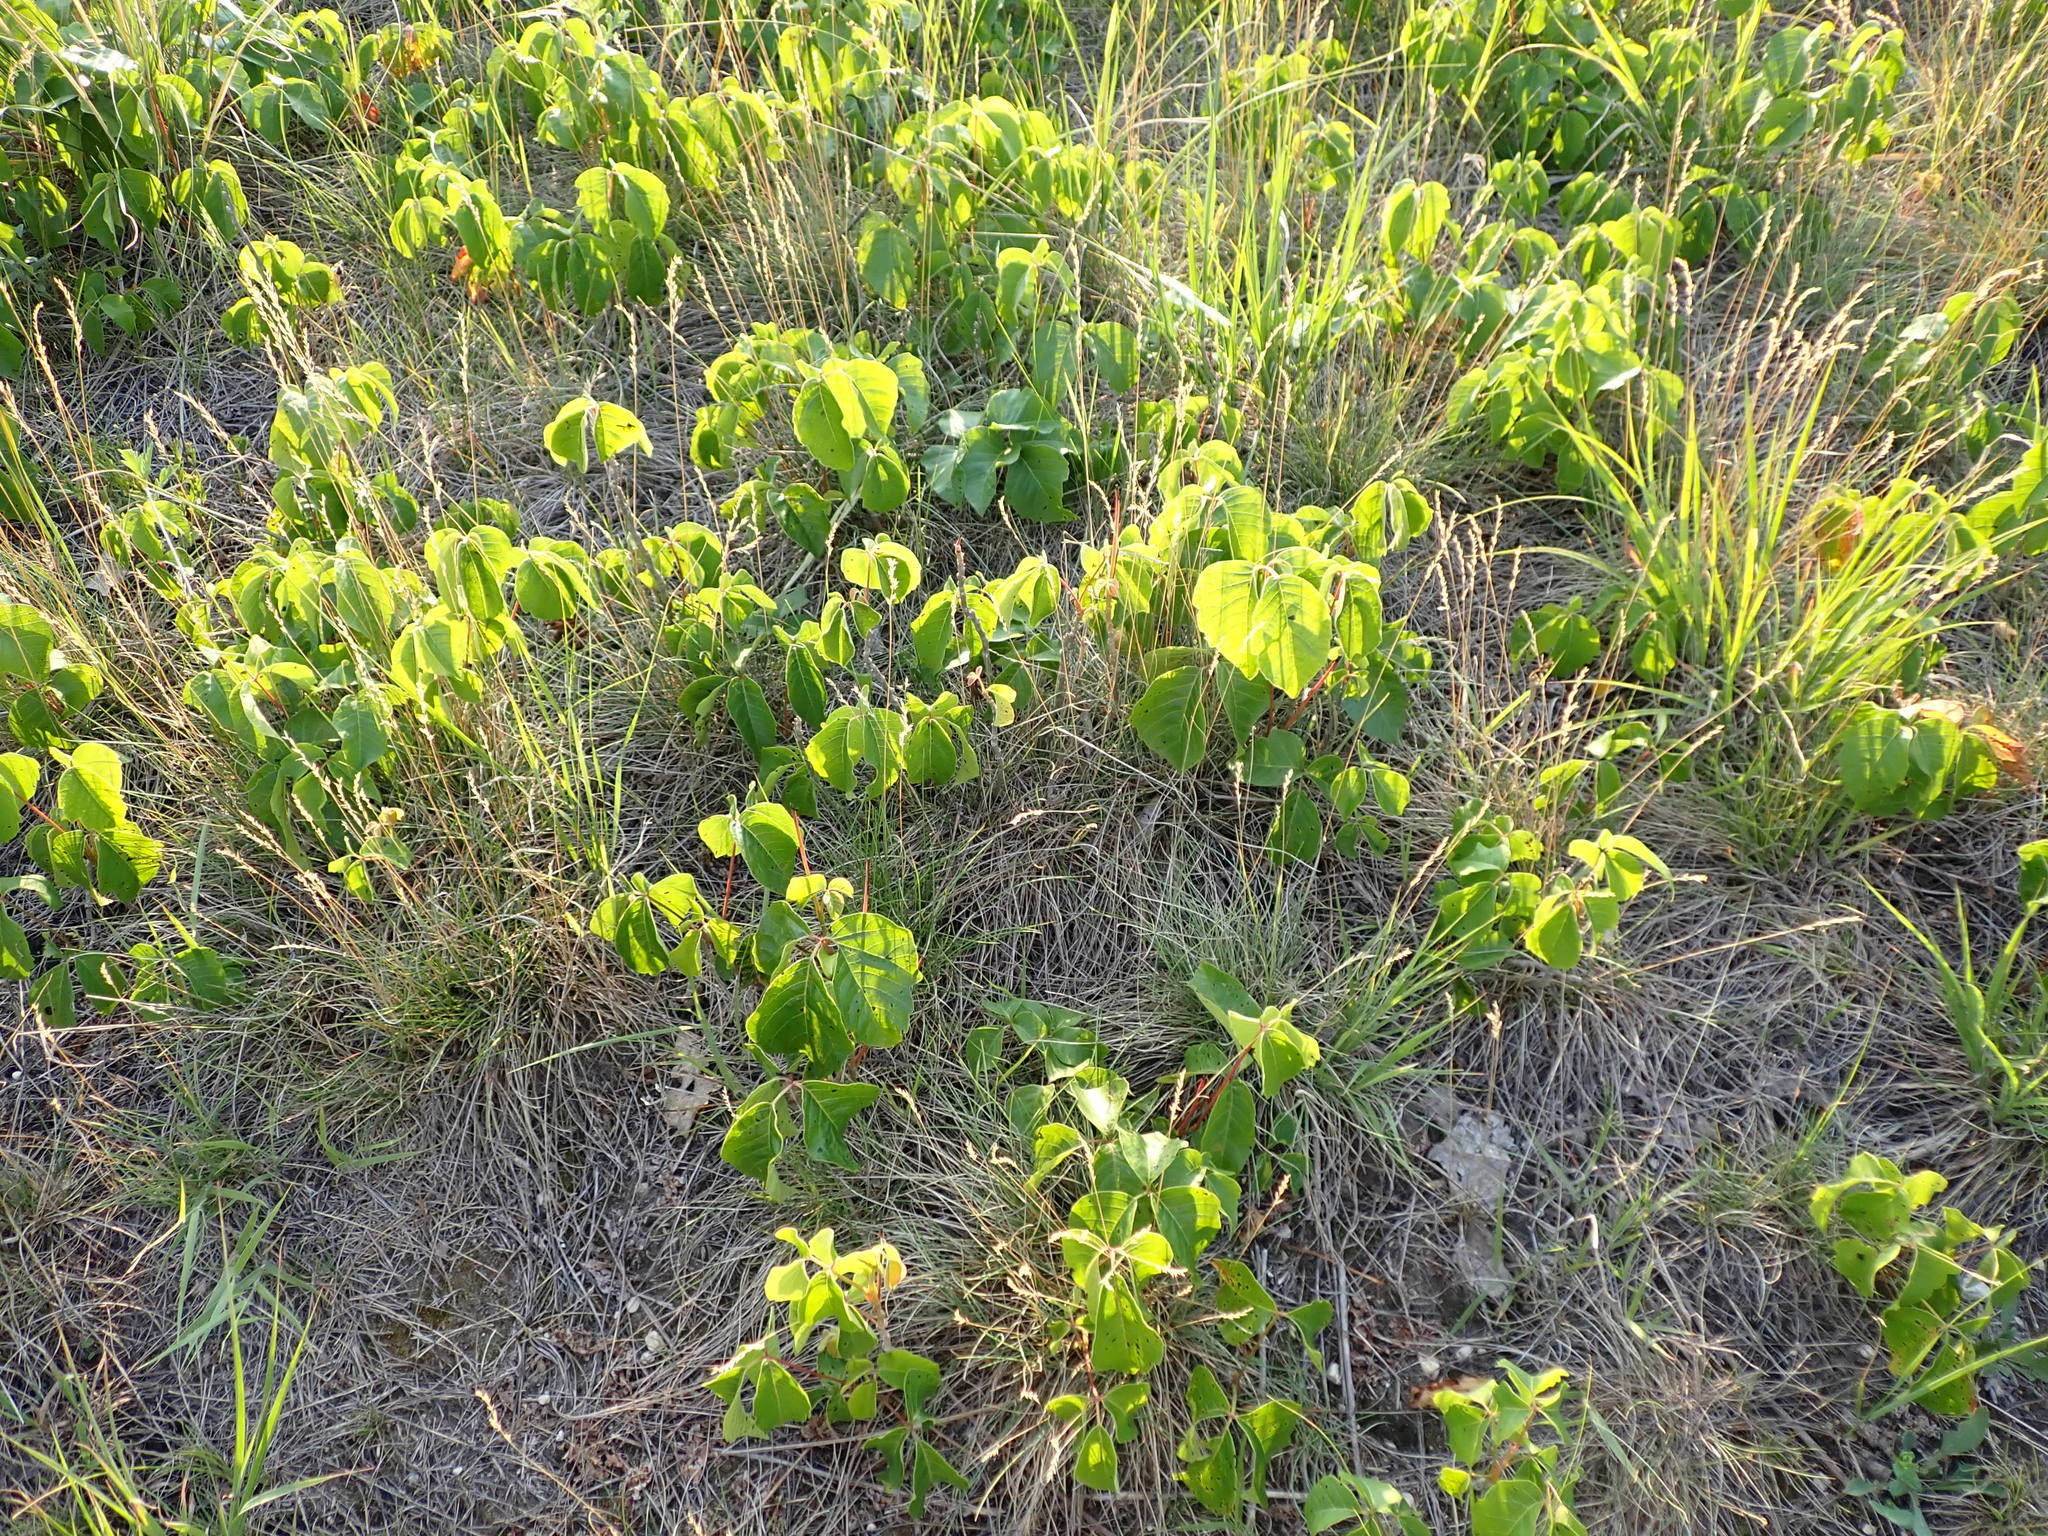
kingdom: Plantae
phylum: Tracheophyta
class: Magnoliopsida
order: Sapindales
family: Anacardiaceae
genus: Toxicodendron
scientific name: Toxicodendron rydbergii
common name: Rydberg's poison-ivy
